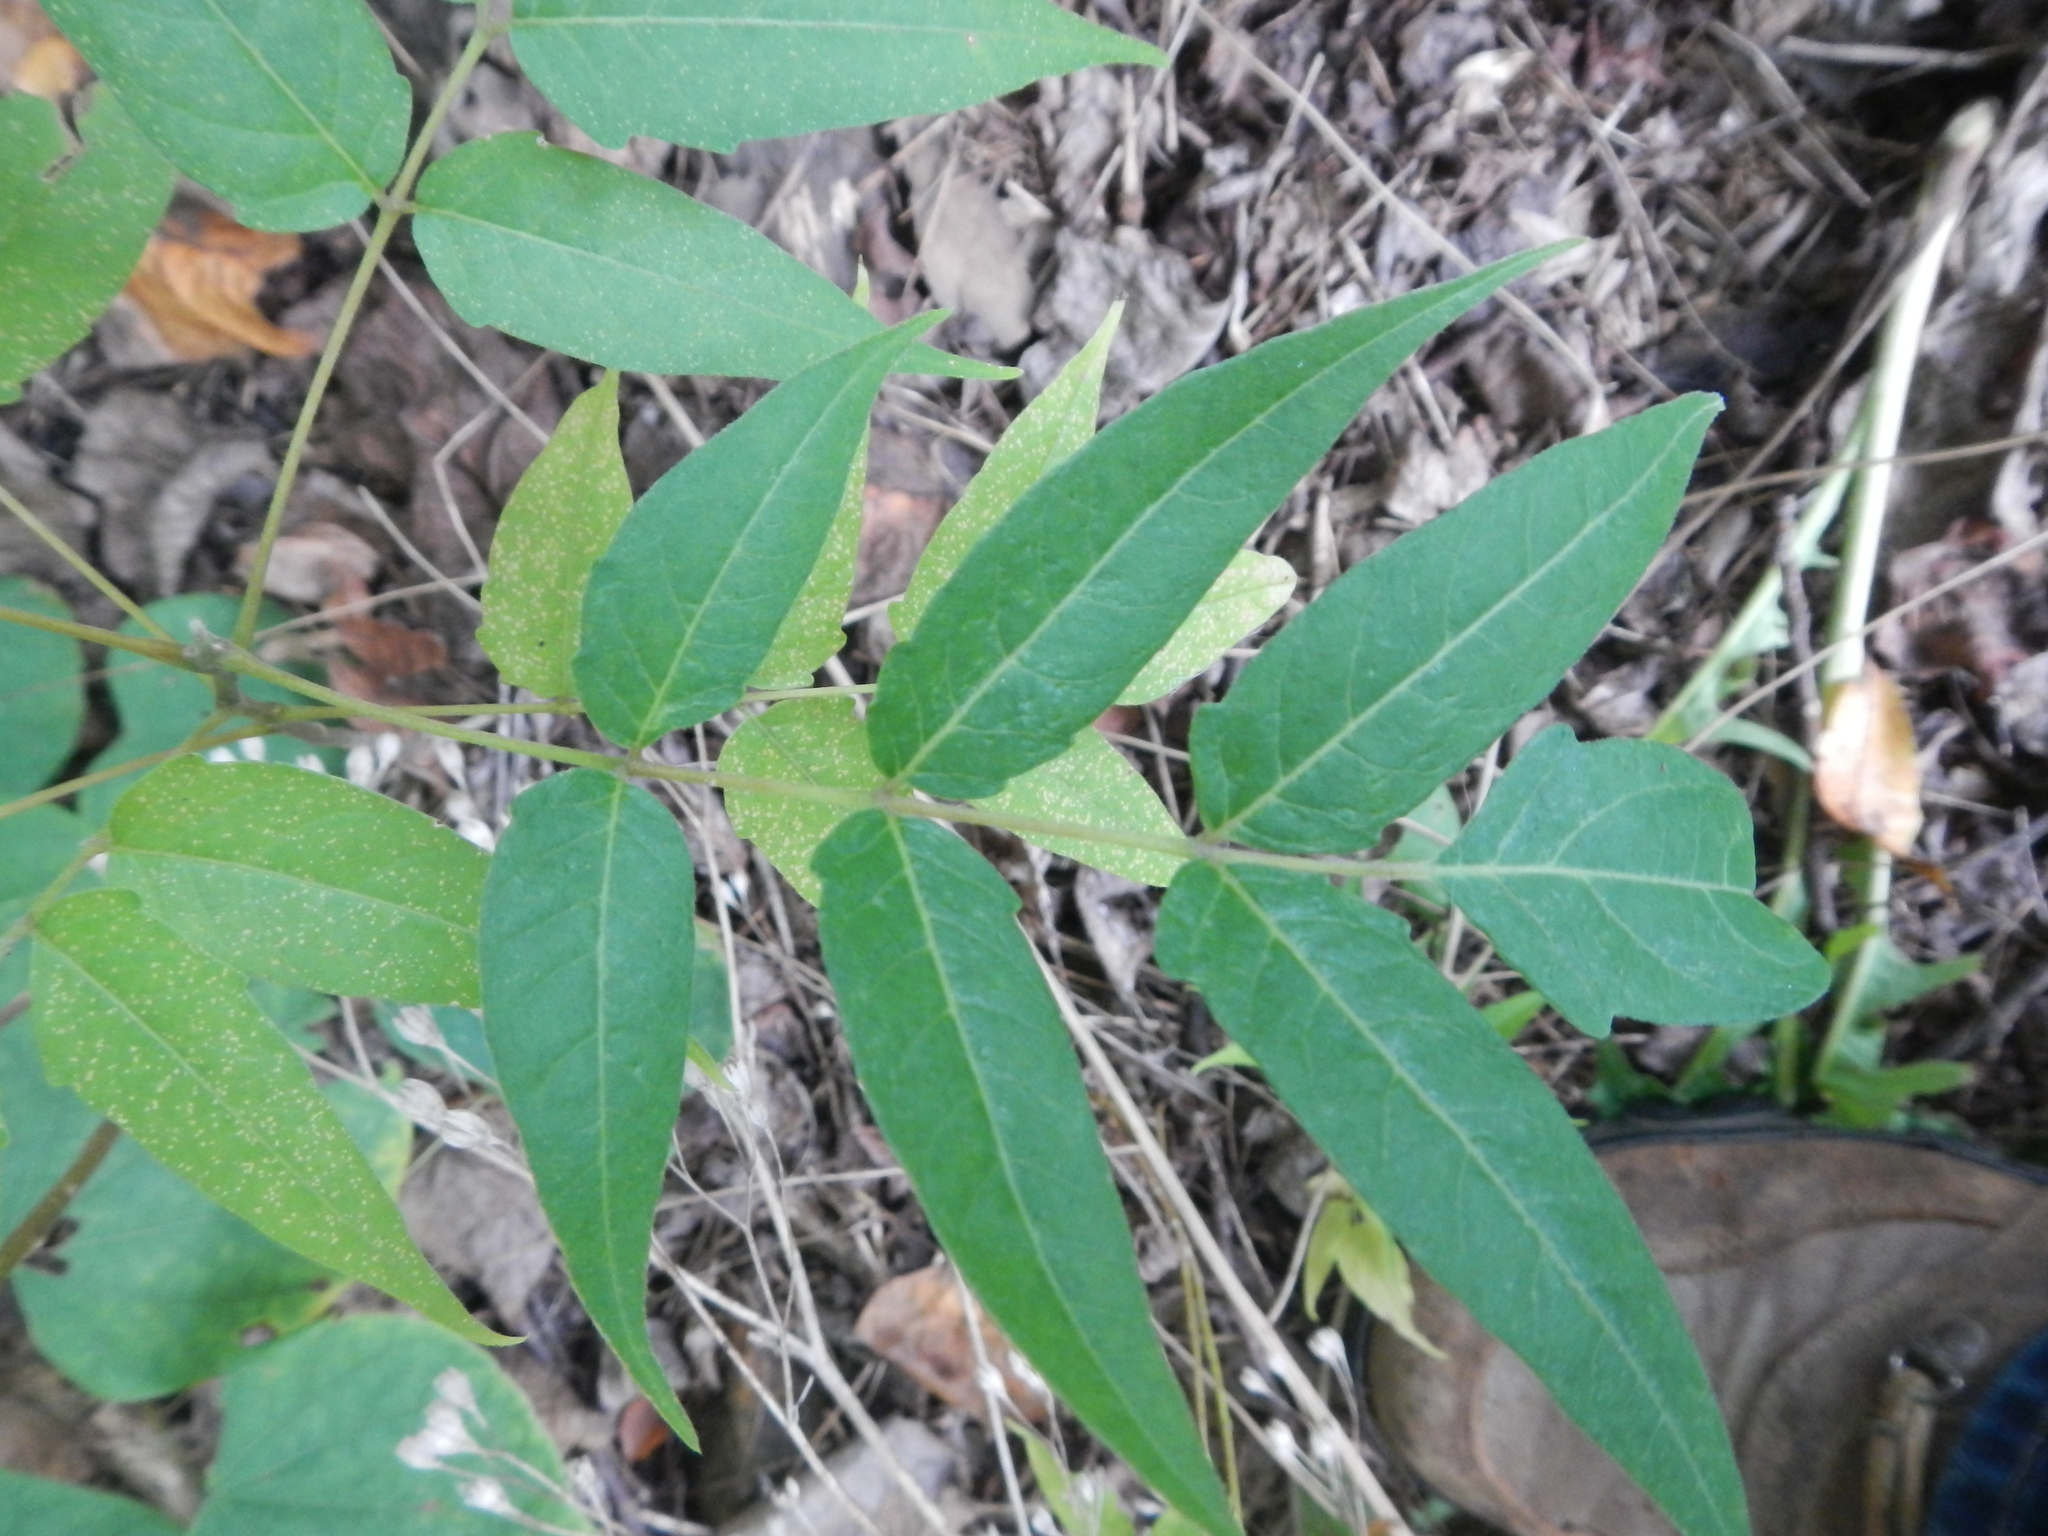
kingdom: Plantae
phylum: Tracheophyta
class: Magnoliopsida
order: Sapindales
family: Simaroubaceae
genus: Ailanthus
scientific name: Ailanthus altissima
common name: Tree-of-heaven
